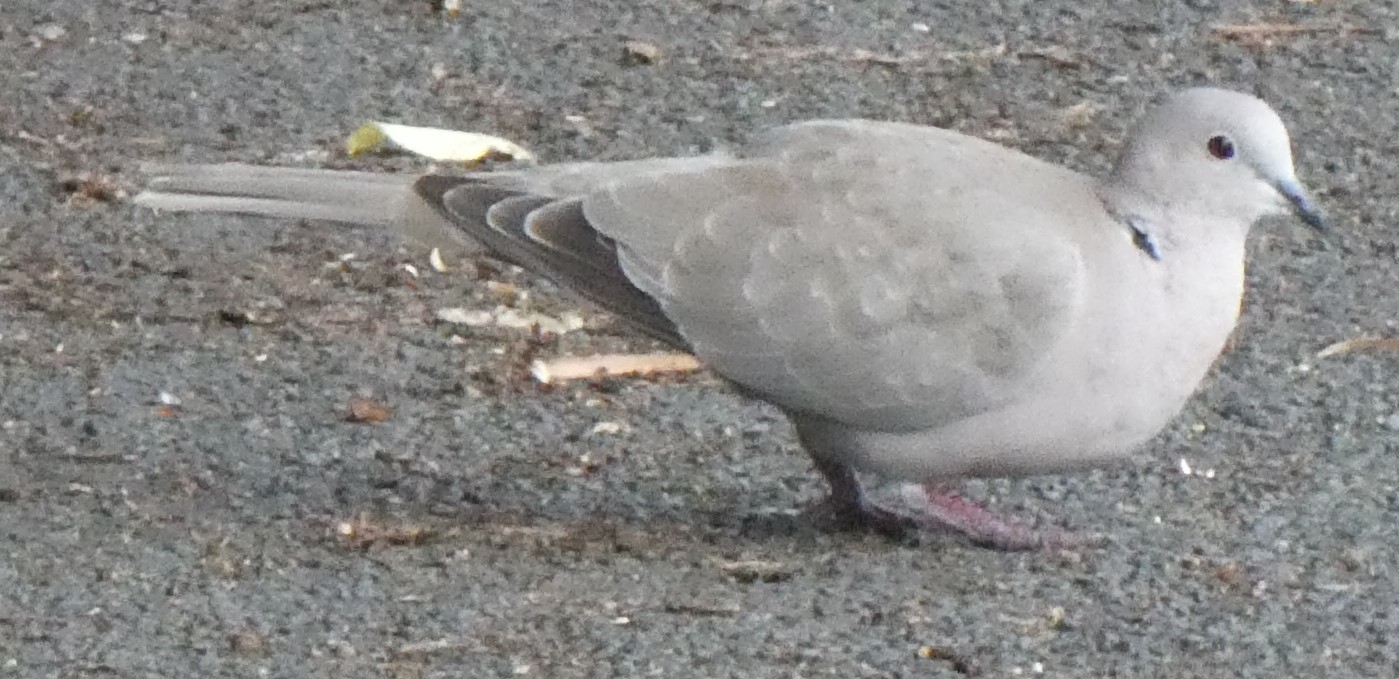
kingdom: Animalia
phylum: Chordata
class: Aves
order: Columbiformes
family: Columbidae
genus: Streptopelia
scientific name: Streptopelia decaocto
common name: Eurasian collared dove
